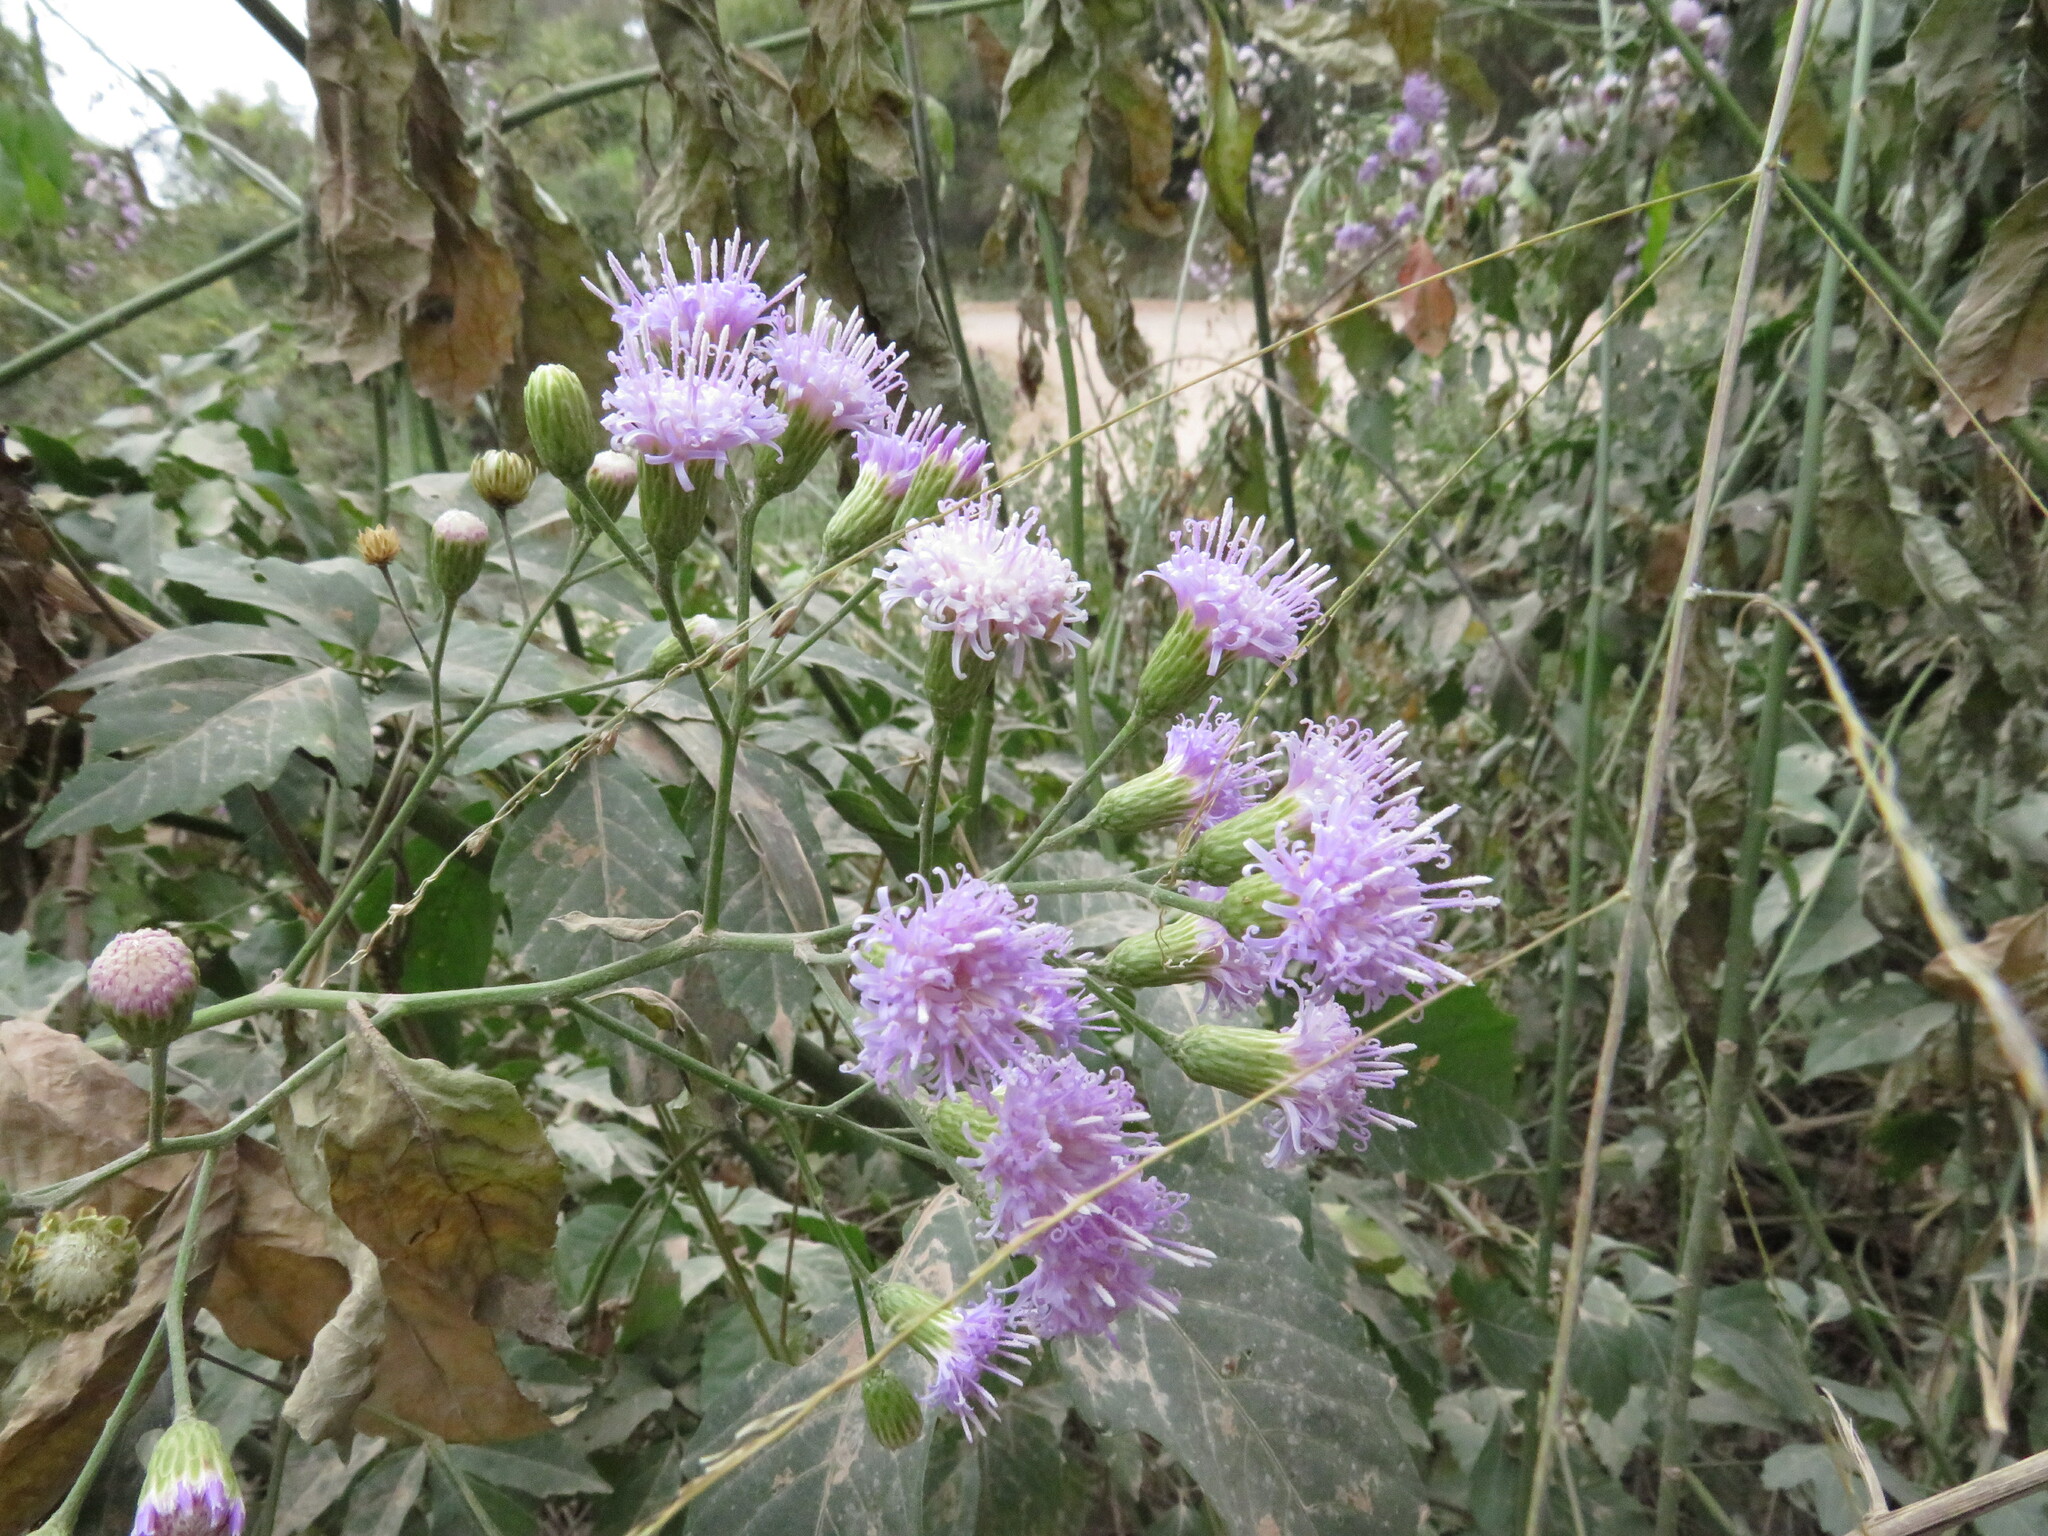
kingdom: Plantae
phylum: Tracheophyta
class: Magnoliopsida
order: Asterales
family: Asteraceae
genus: Quechualia
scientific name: Quechualia fulta
